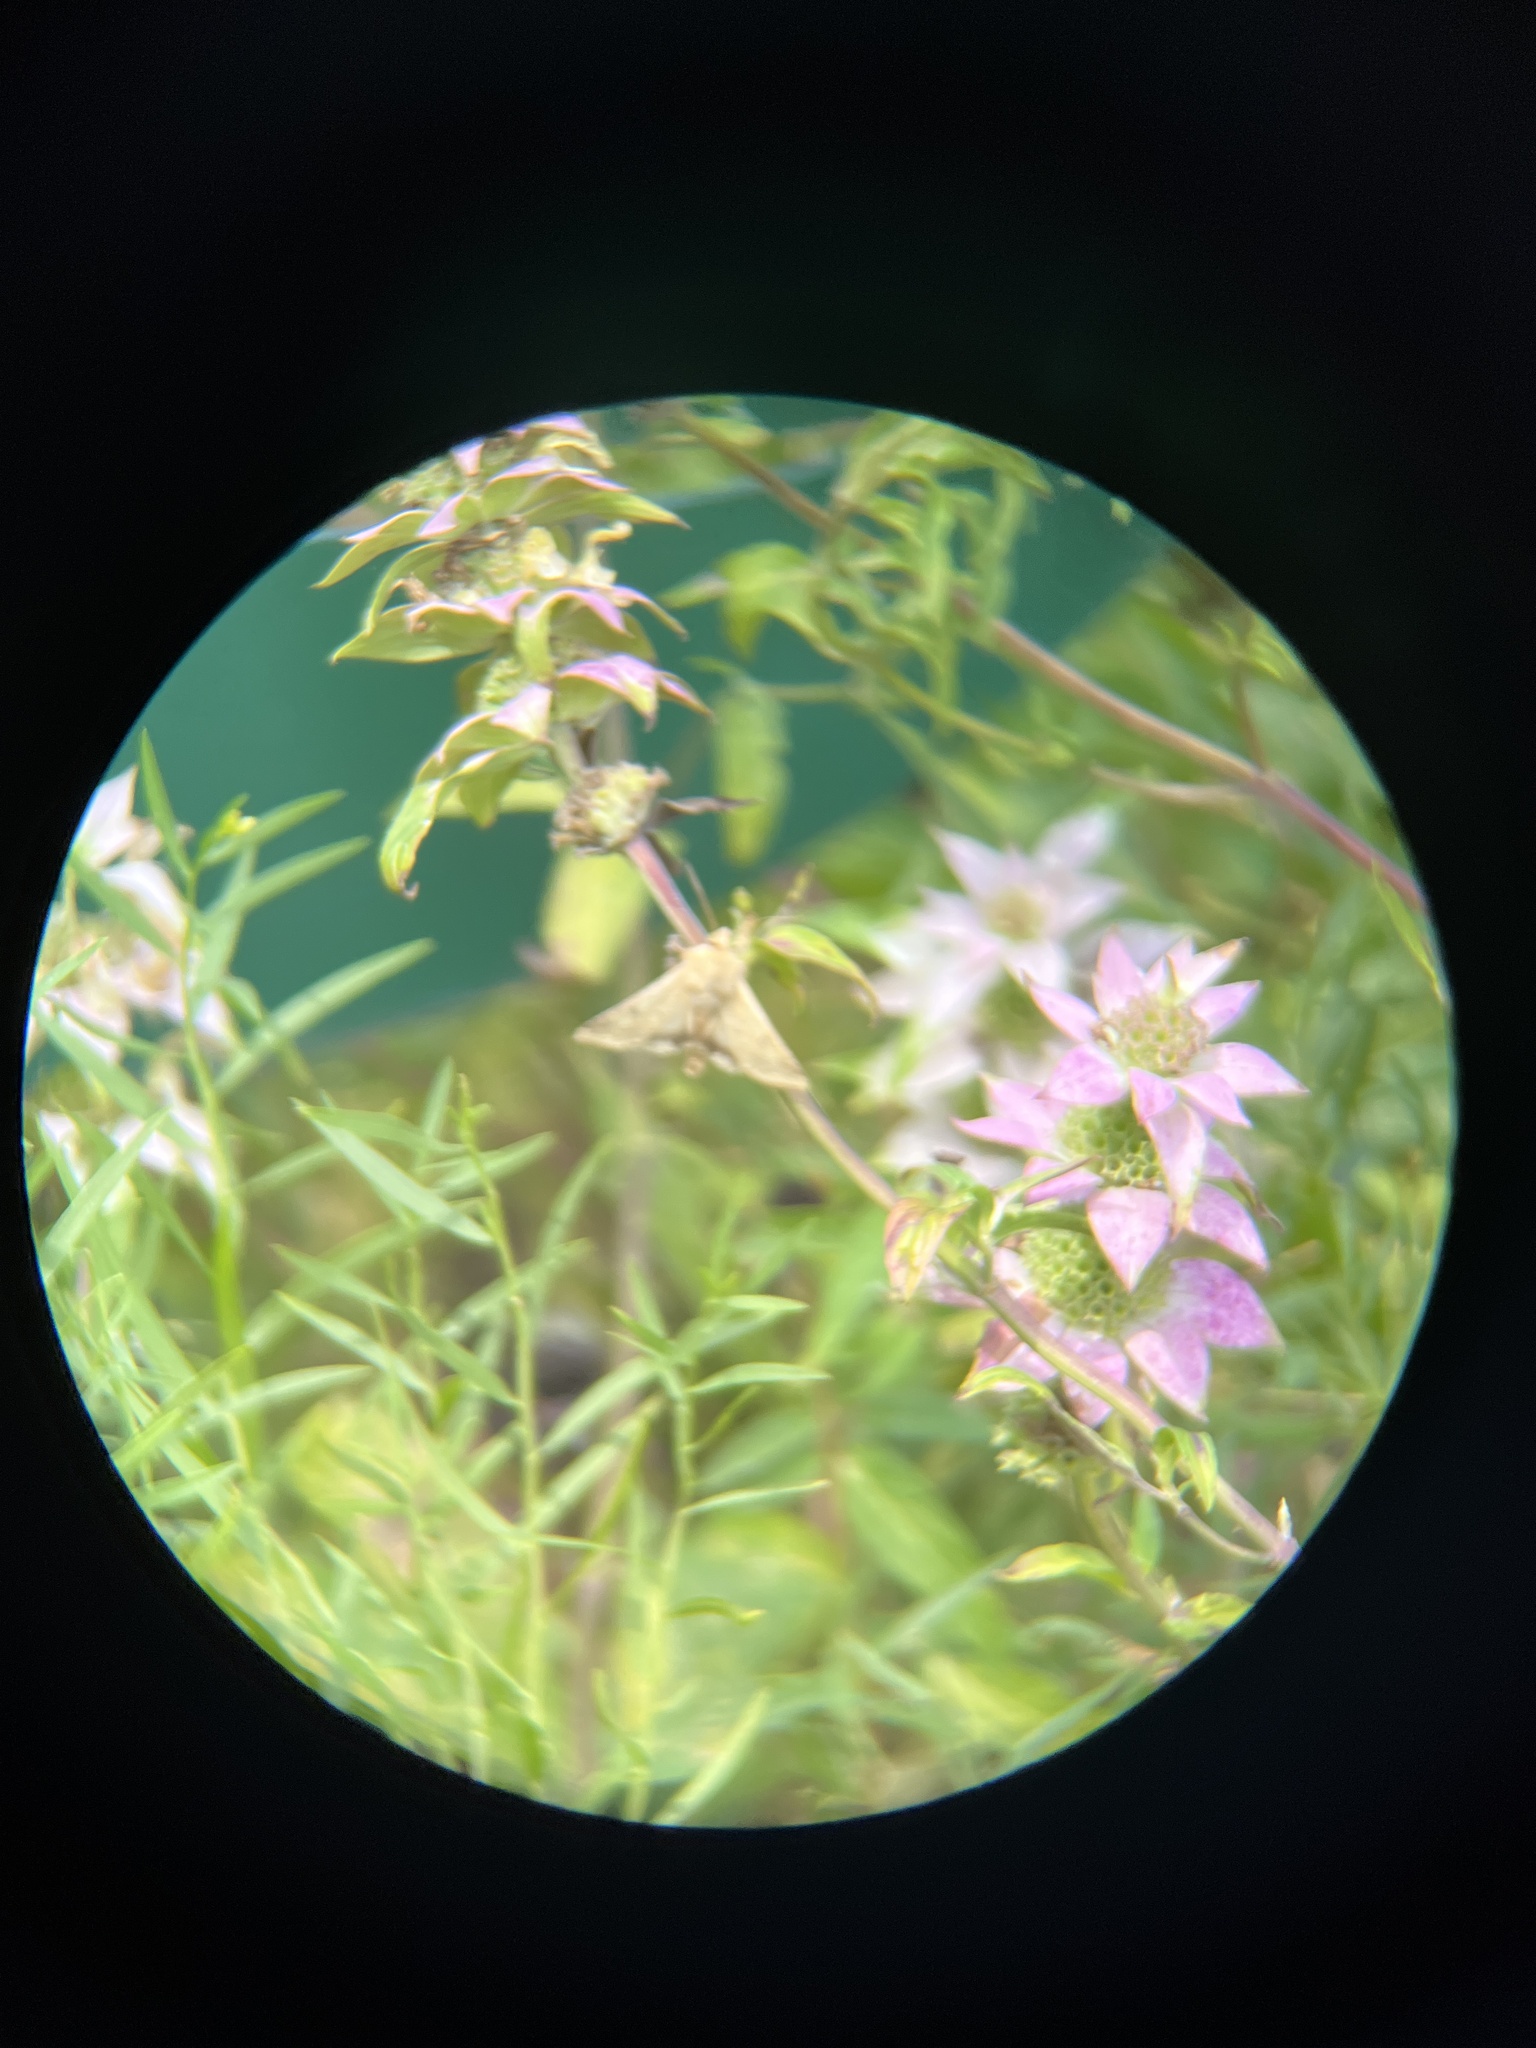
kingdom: Animalia
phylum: Arthropoda
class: Insecta
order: Lepidoptera
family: Noctuidae
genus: Helicoverpa
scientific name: Helicoverpa zea
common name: Bollworm
